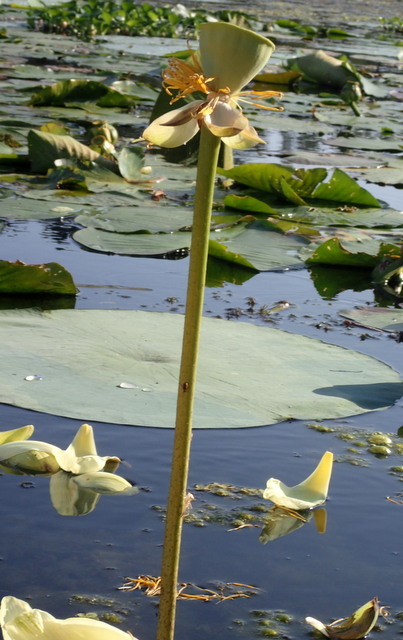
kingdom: Plantae
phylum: Tracheophyta
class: Magnoliopsida
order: Proteales
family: Nelumbonaceae
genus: Nelumbo
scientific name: Nelumbo lutea
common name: American lotus
